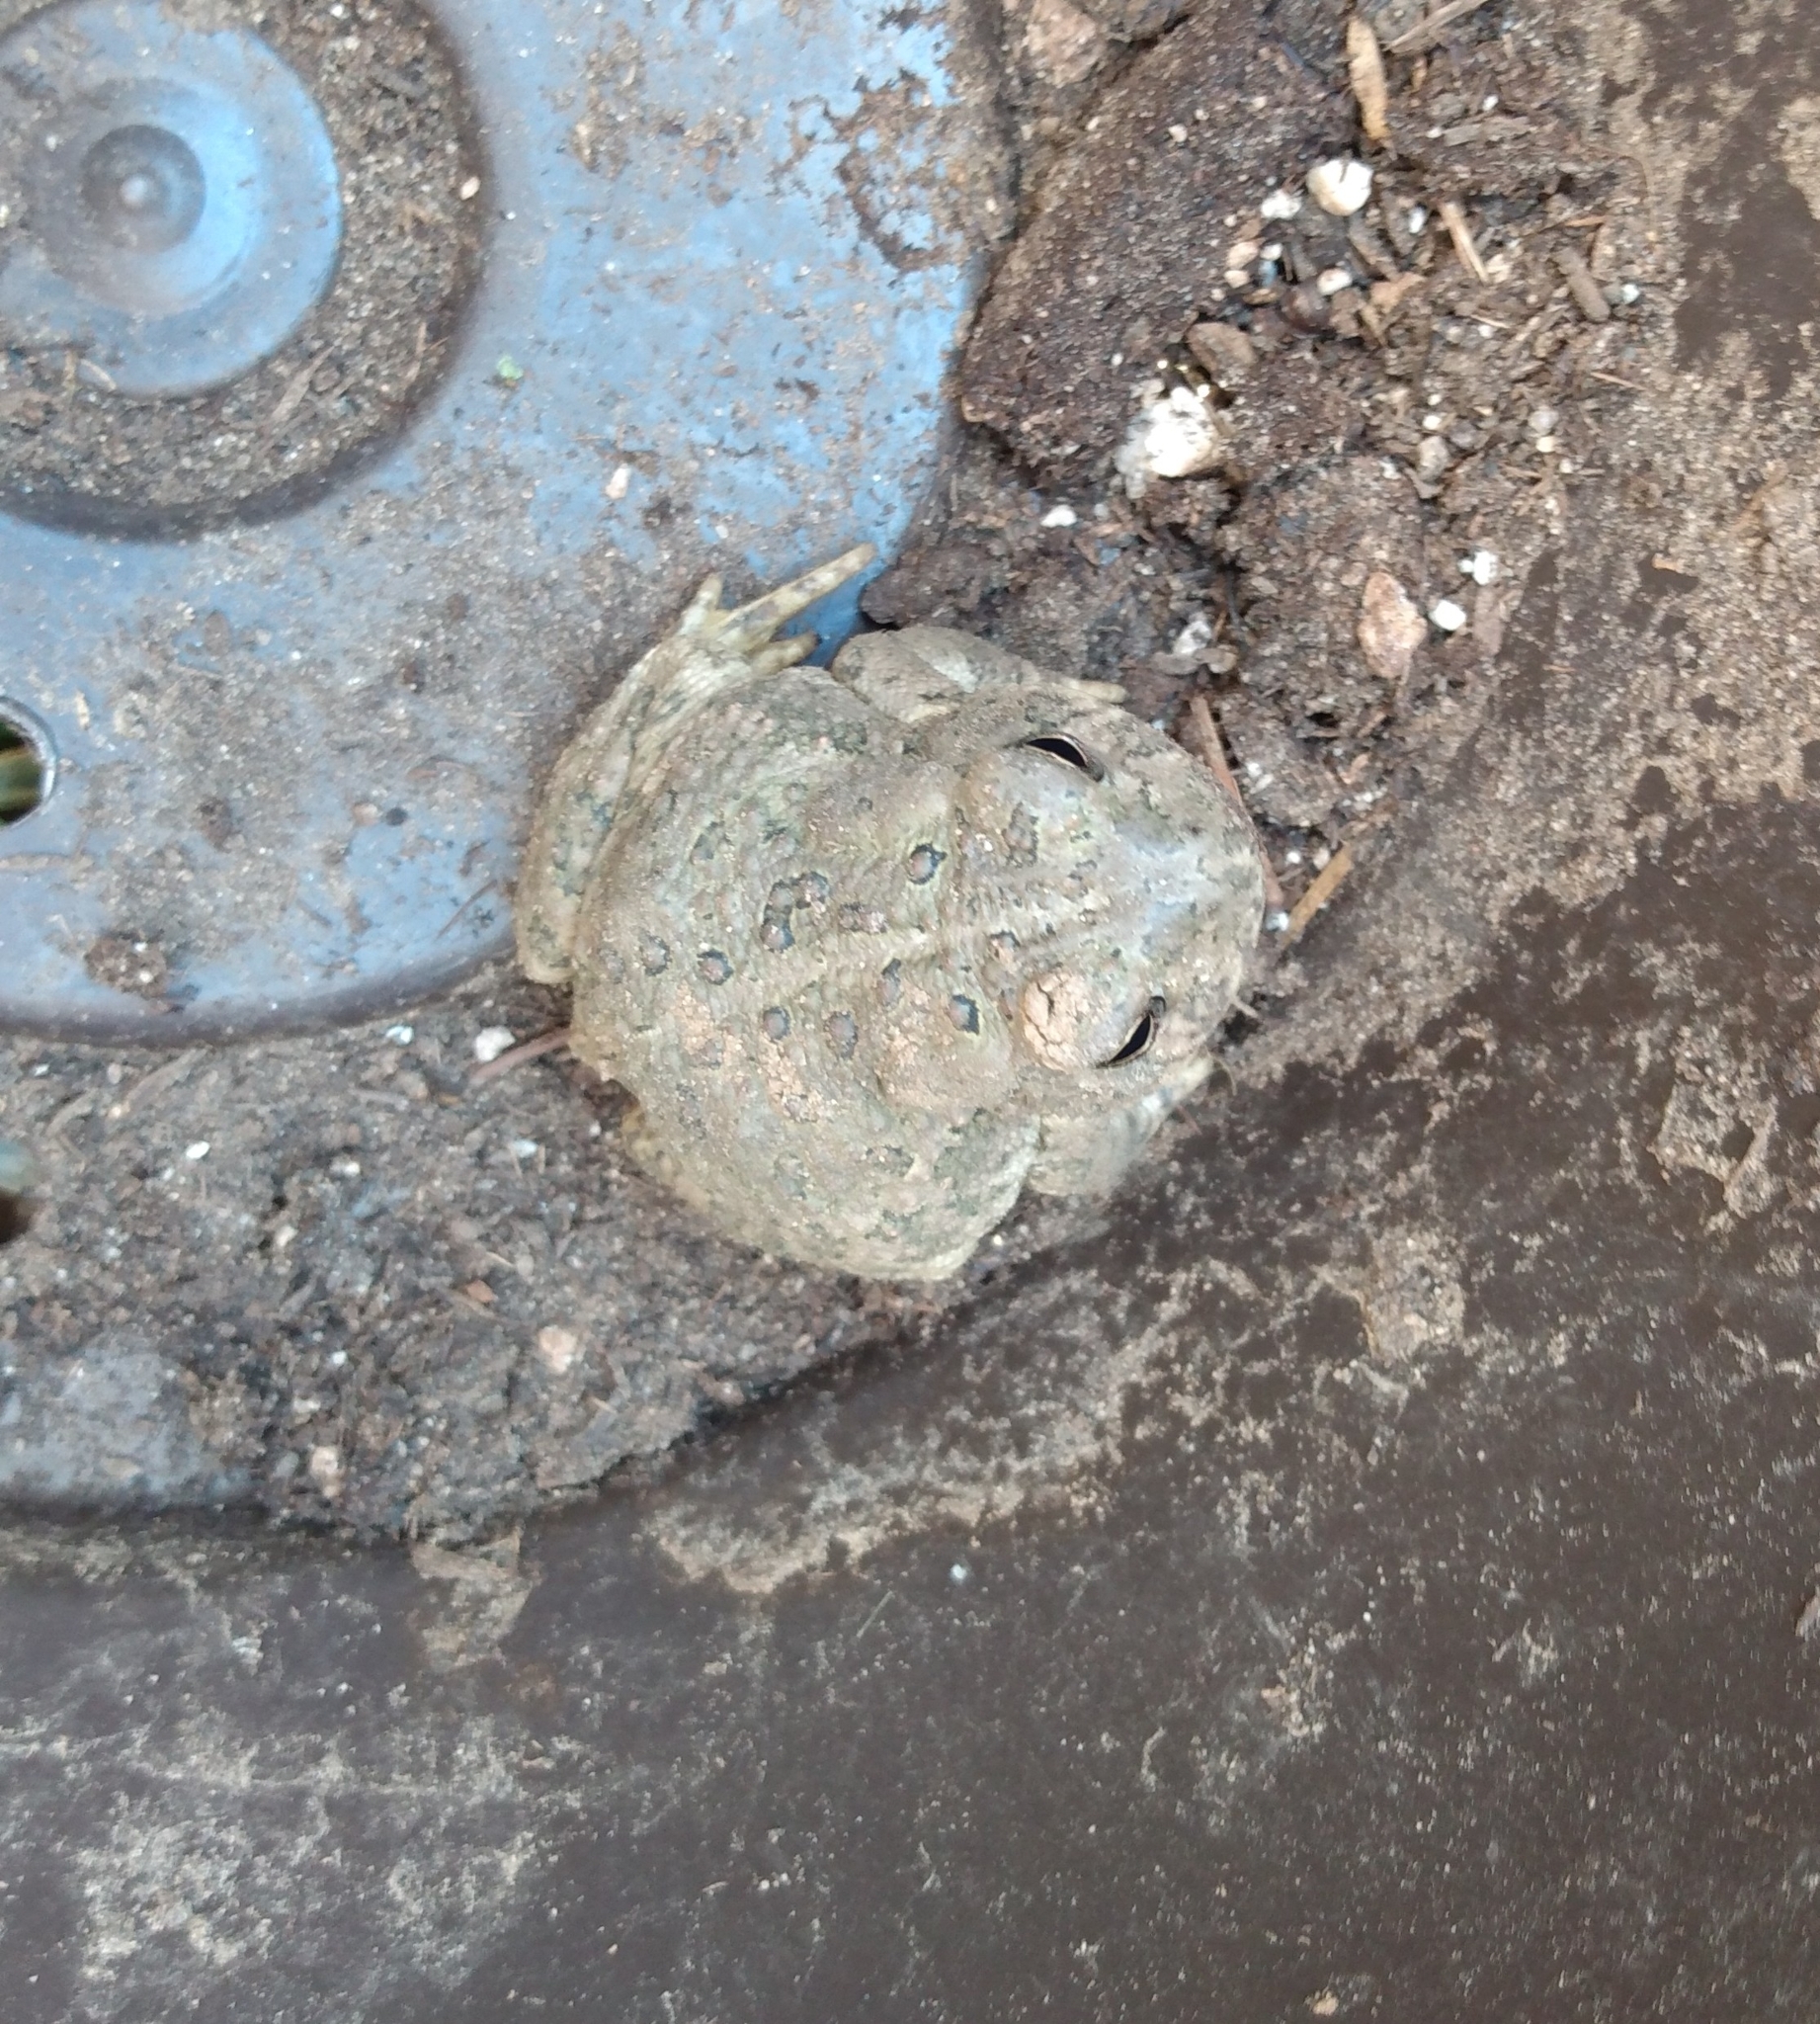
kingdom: Animalia
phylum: Chordata
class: Amphibia
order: Anura
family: Bufonidae
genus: Anaxyrus
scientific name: Anaxyrus woodhousii
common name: Woodhouse's toad
